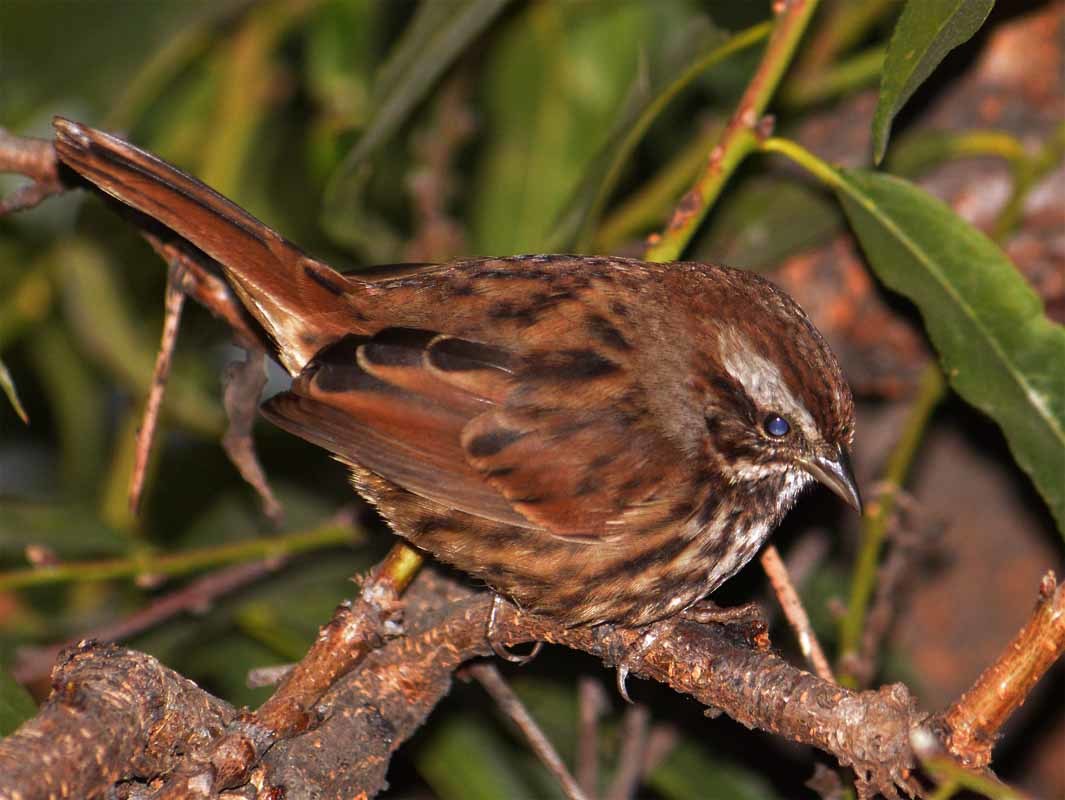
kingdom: Animalia
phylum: Chordata
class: Aves
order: Passeriformes
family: Passerellidae
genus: Melospiza
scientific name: Melospiza melodia
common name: Song sparrow
